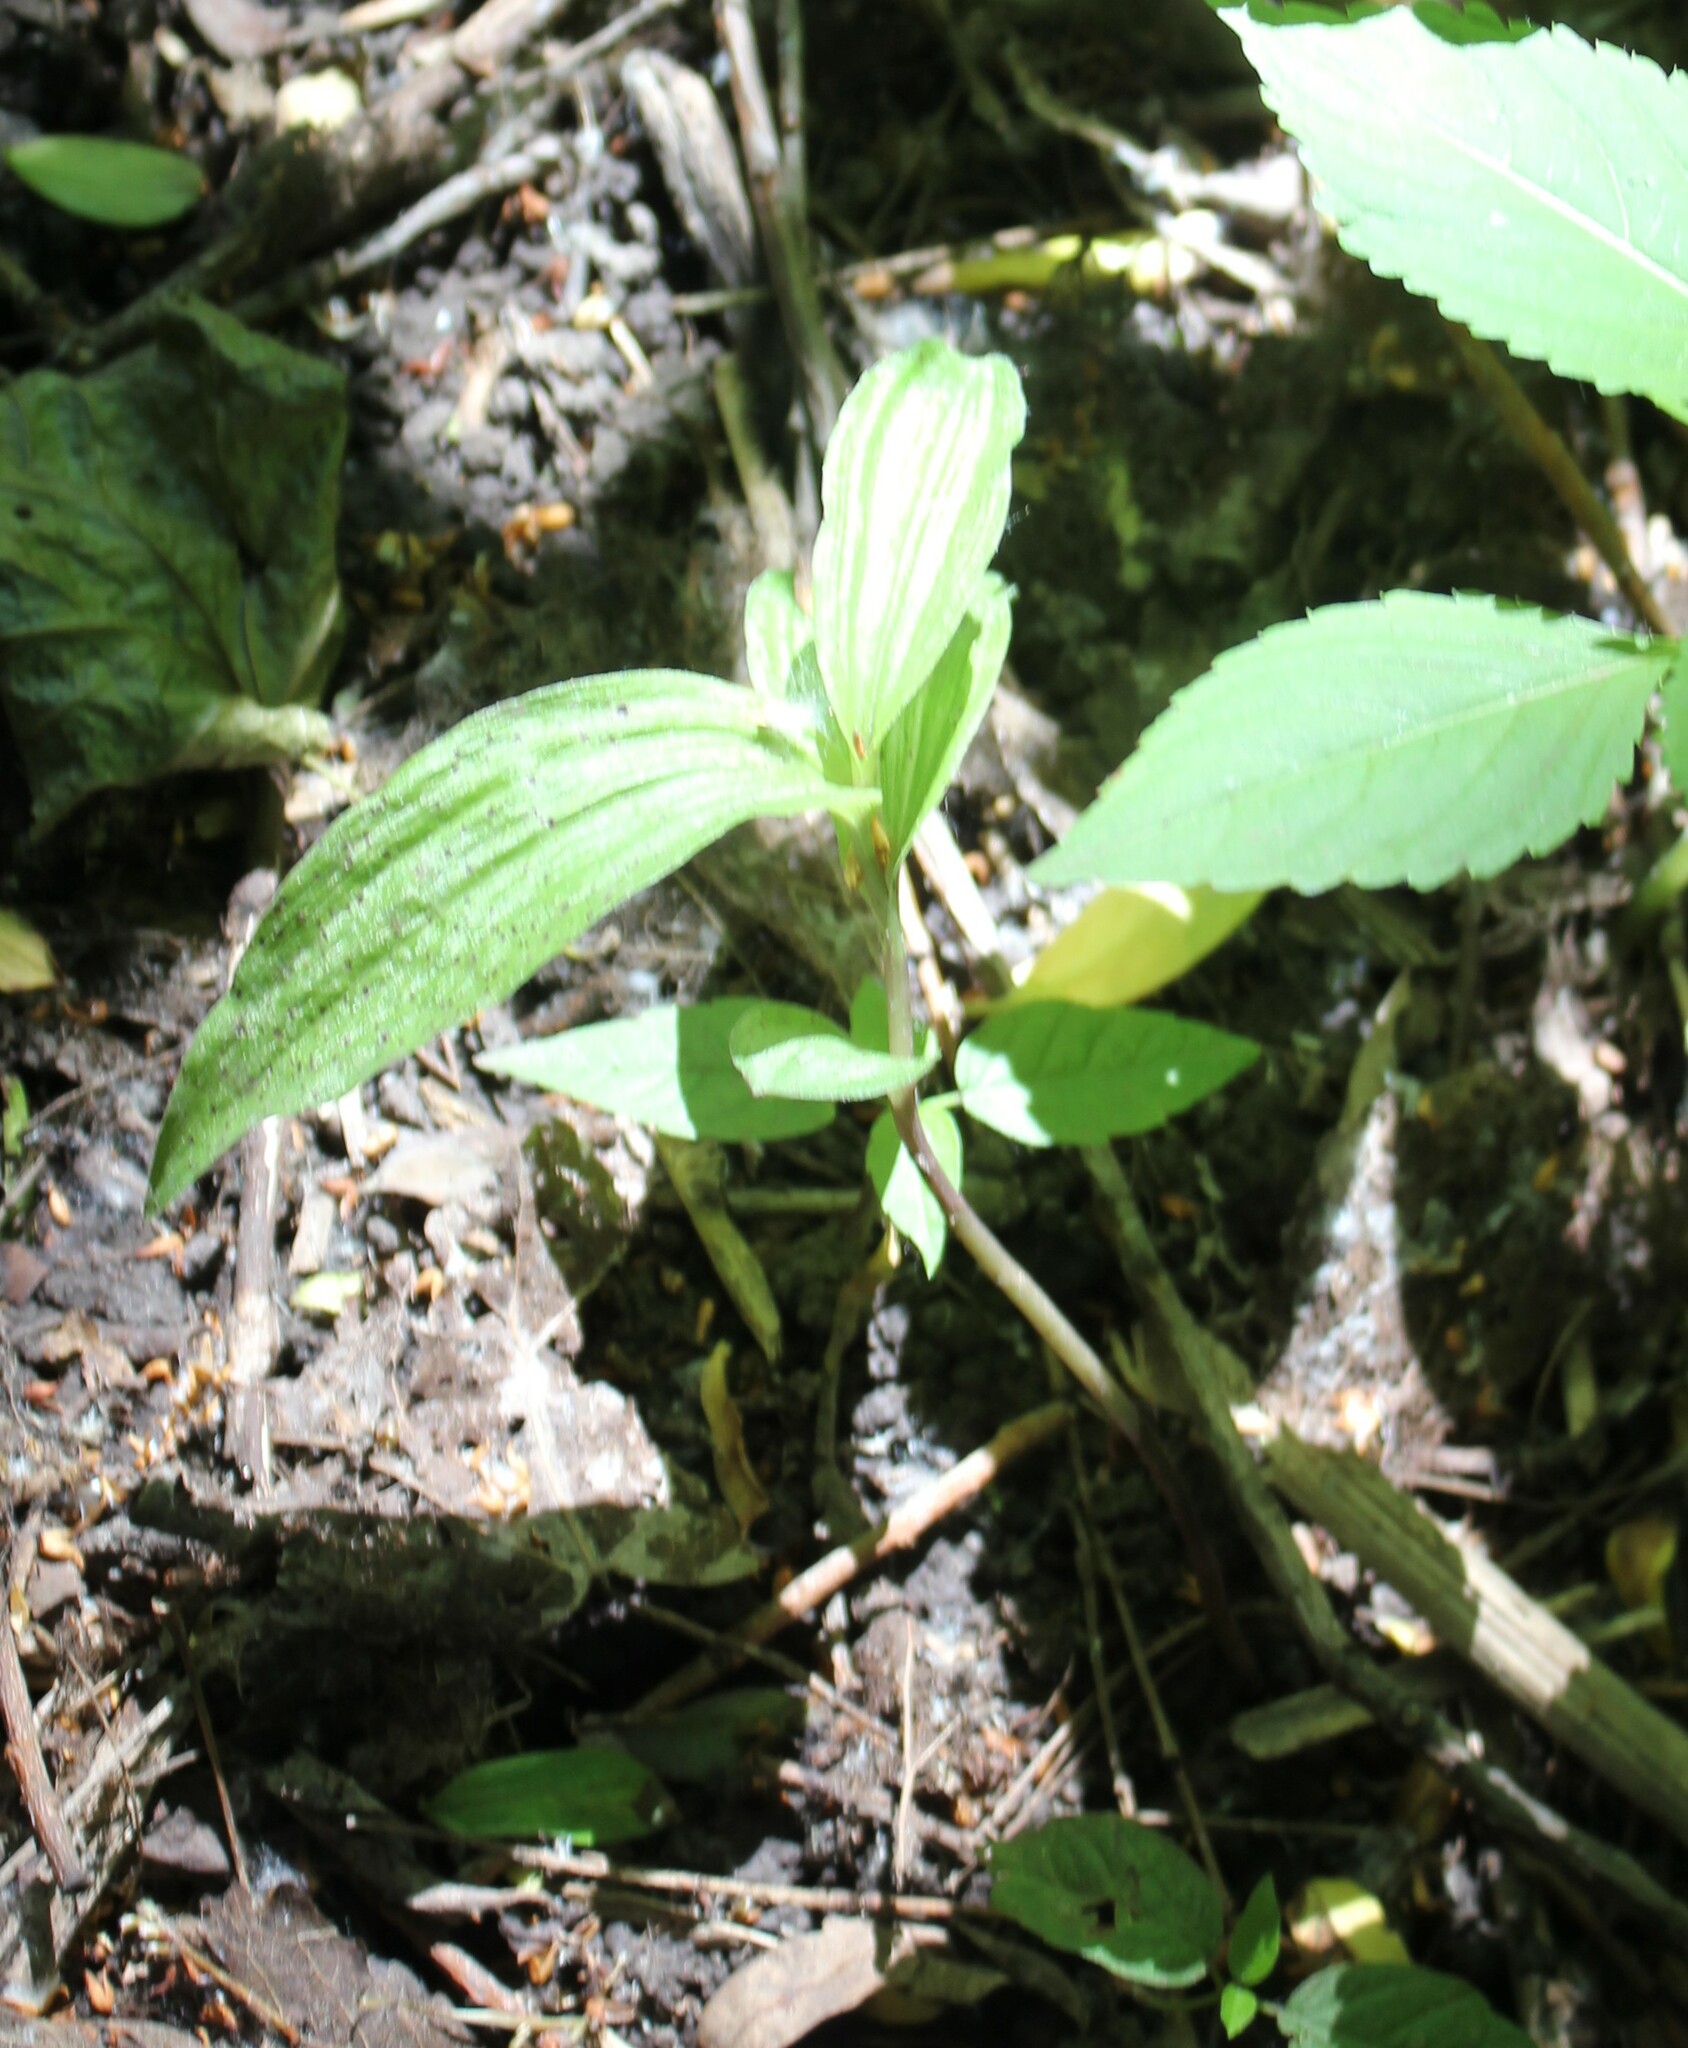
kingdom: Plantae
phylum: Tracheophyta
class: Liliopsida
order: Asparagales
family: Orchidaceae
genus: Epipactis
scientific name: Epipactis helleborine
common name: Broad-leaved helleborine
